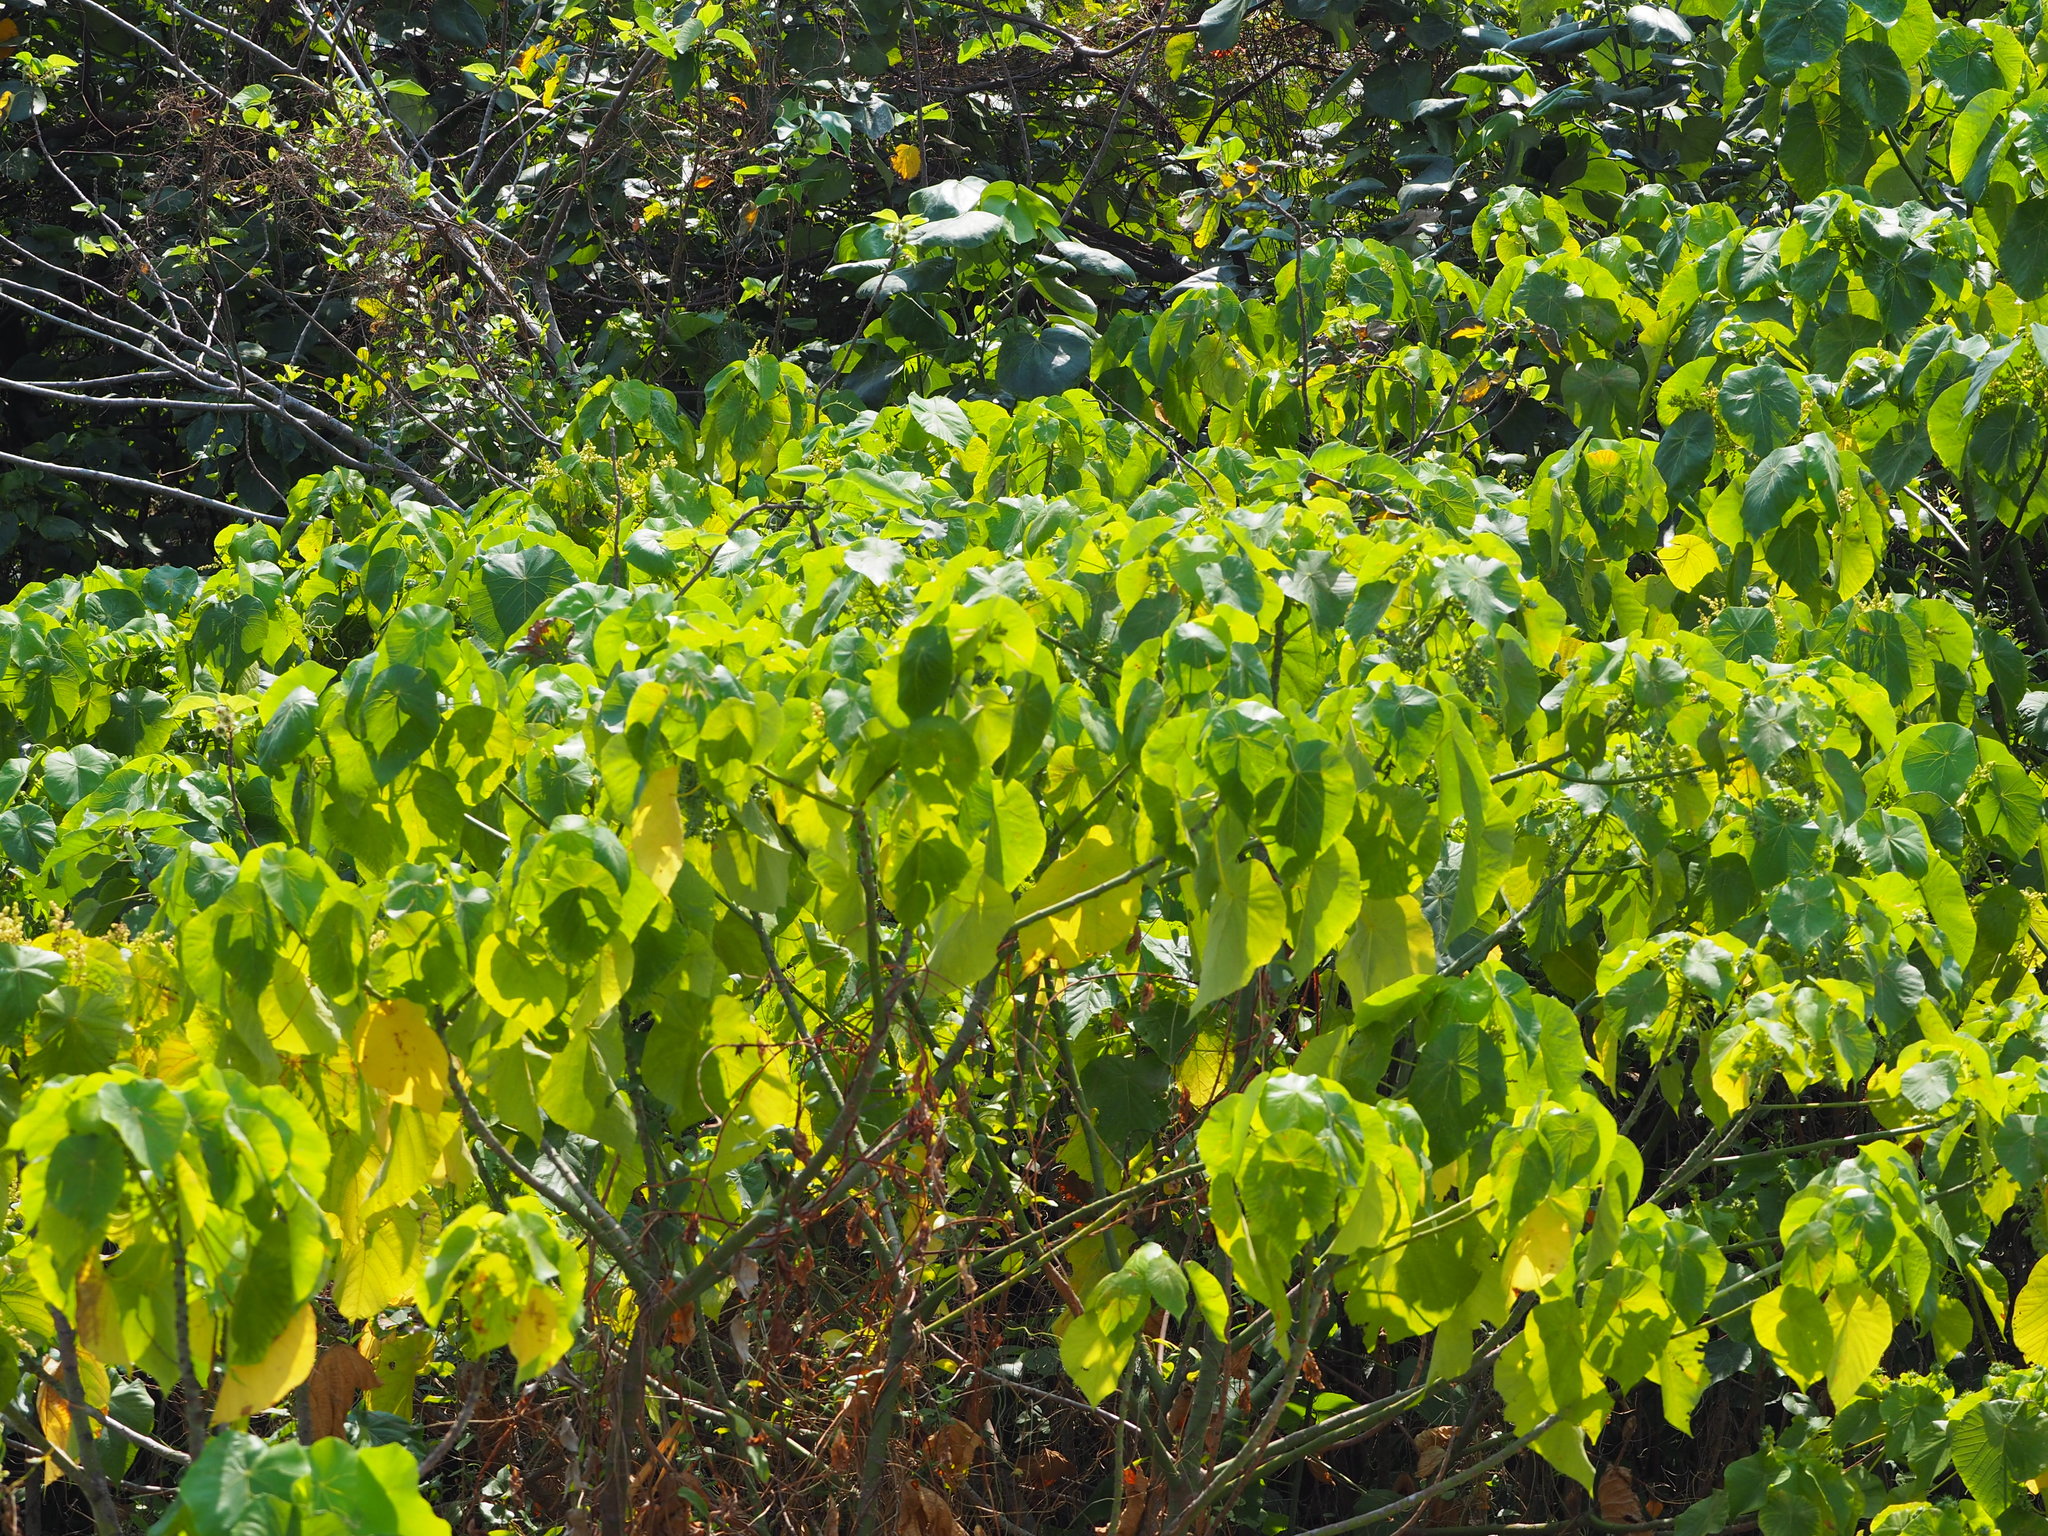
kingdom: Plantae
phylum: Tracheophyta
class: Magnoliopsida
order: Malpighiales
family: Euphorbiaceae
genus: Macaranga
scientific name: Macaranga tanarius
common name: Parasol leaf tree
